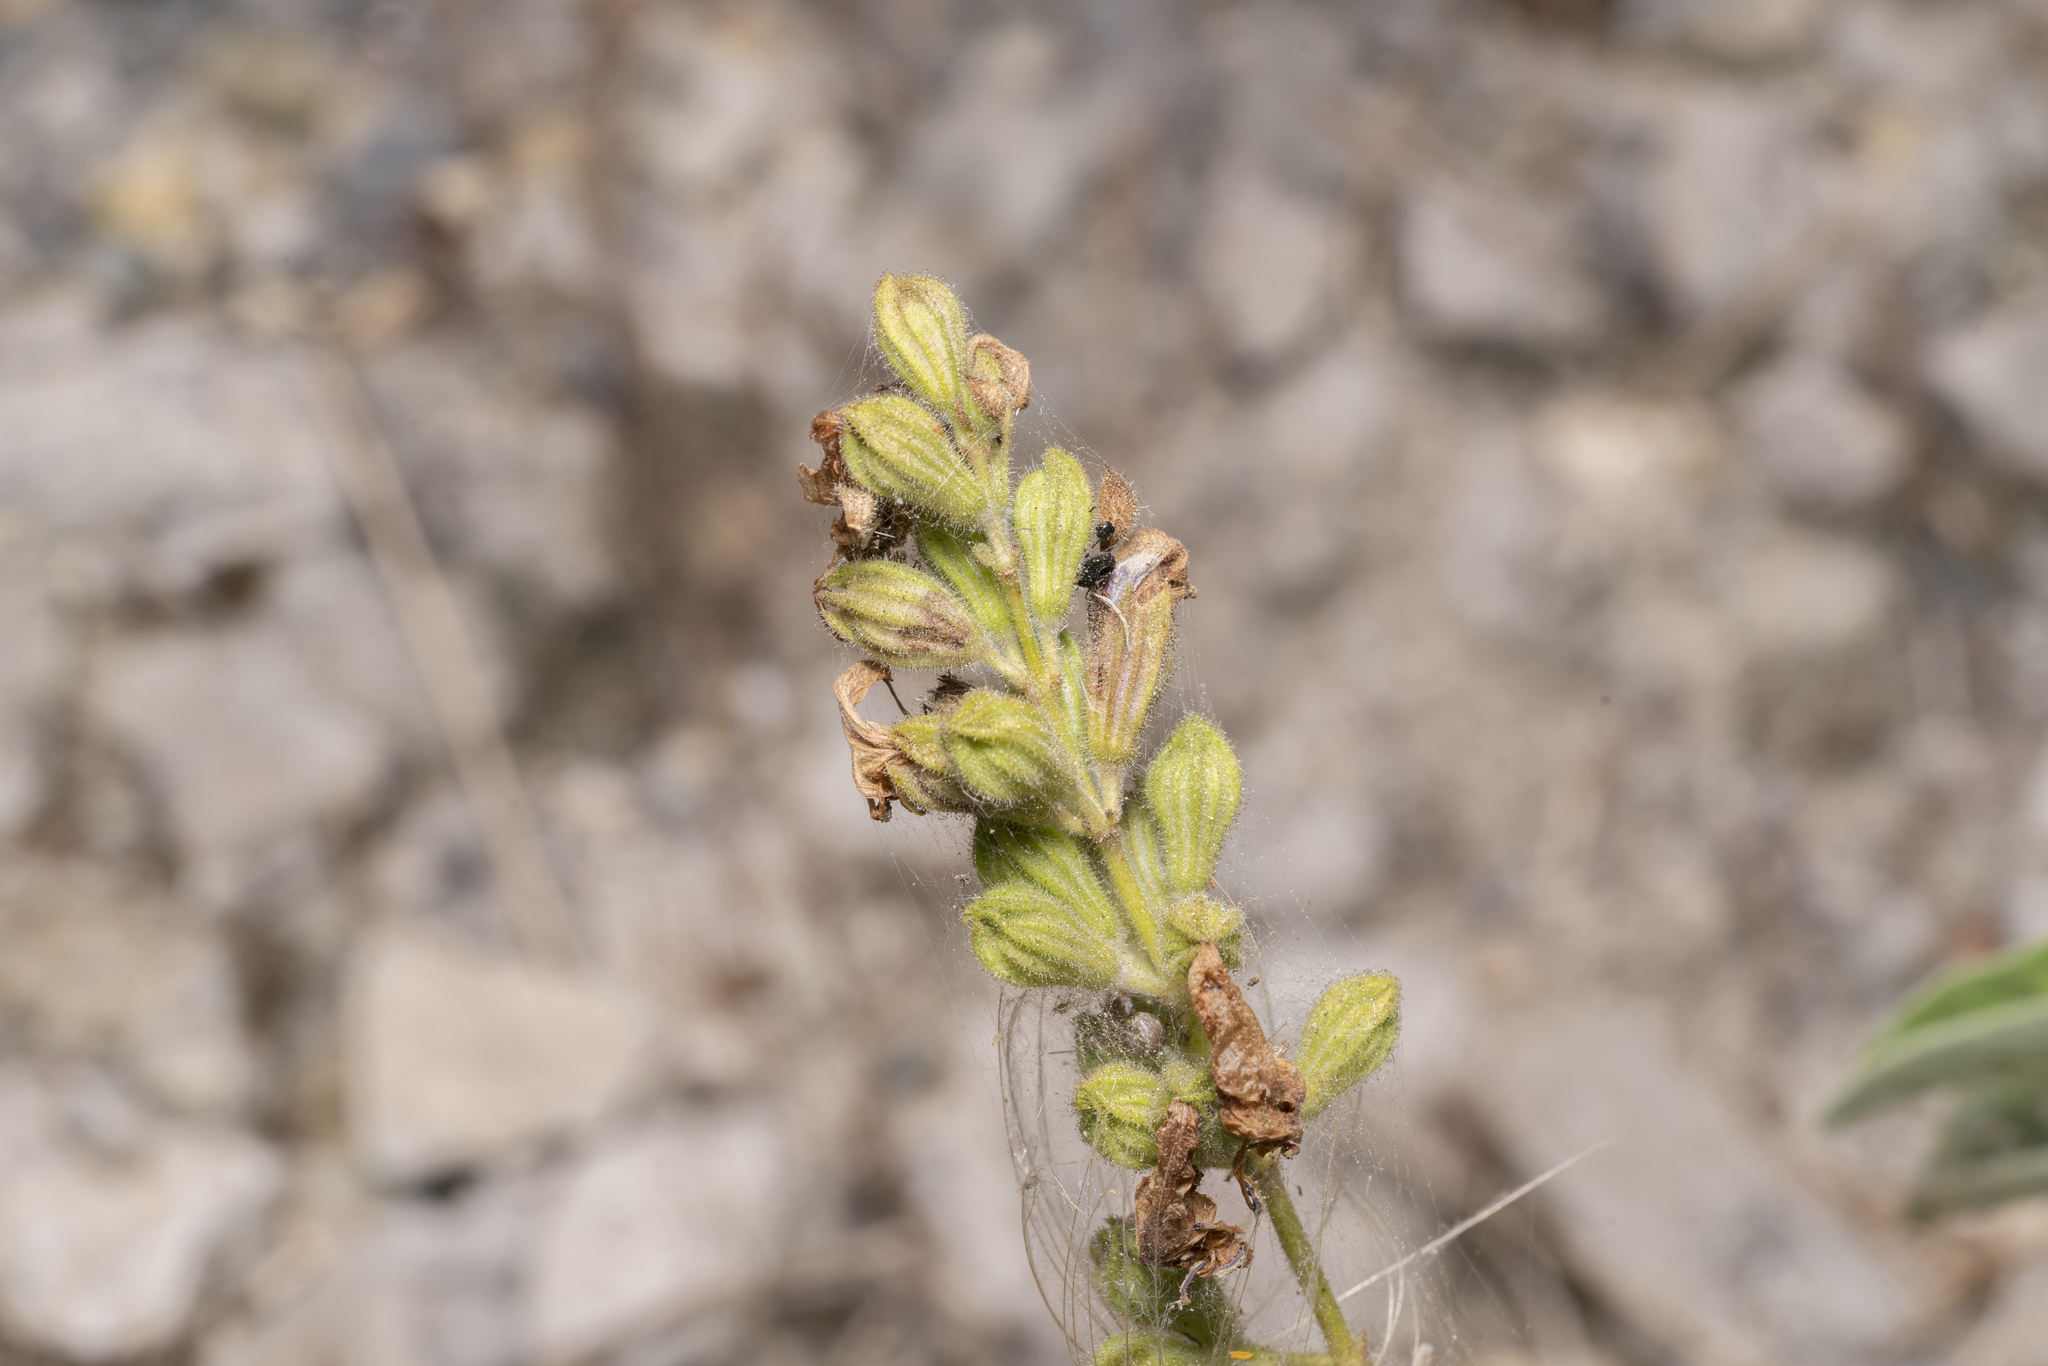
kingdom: Plantae
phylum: Tracheophyta
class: Magnoliopsida
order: Lamiales
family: Lamiaceae
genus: Salvia
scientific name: Salvia fruticosa
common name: Greek sage
